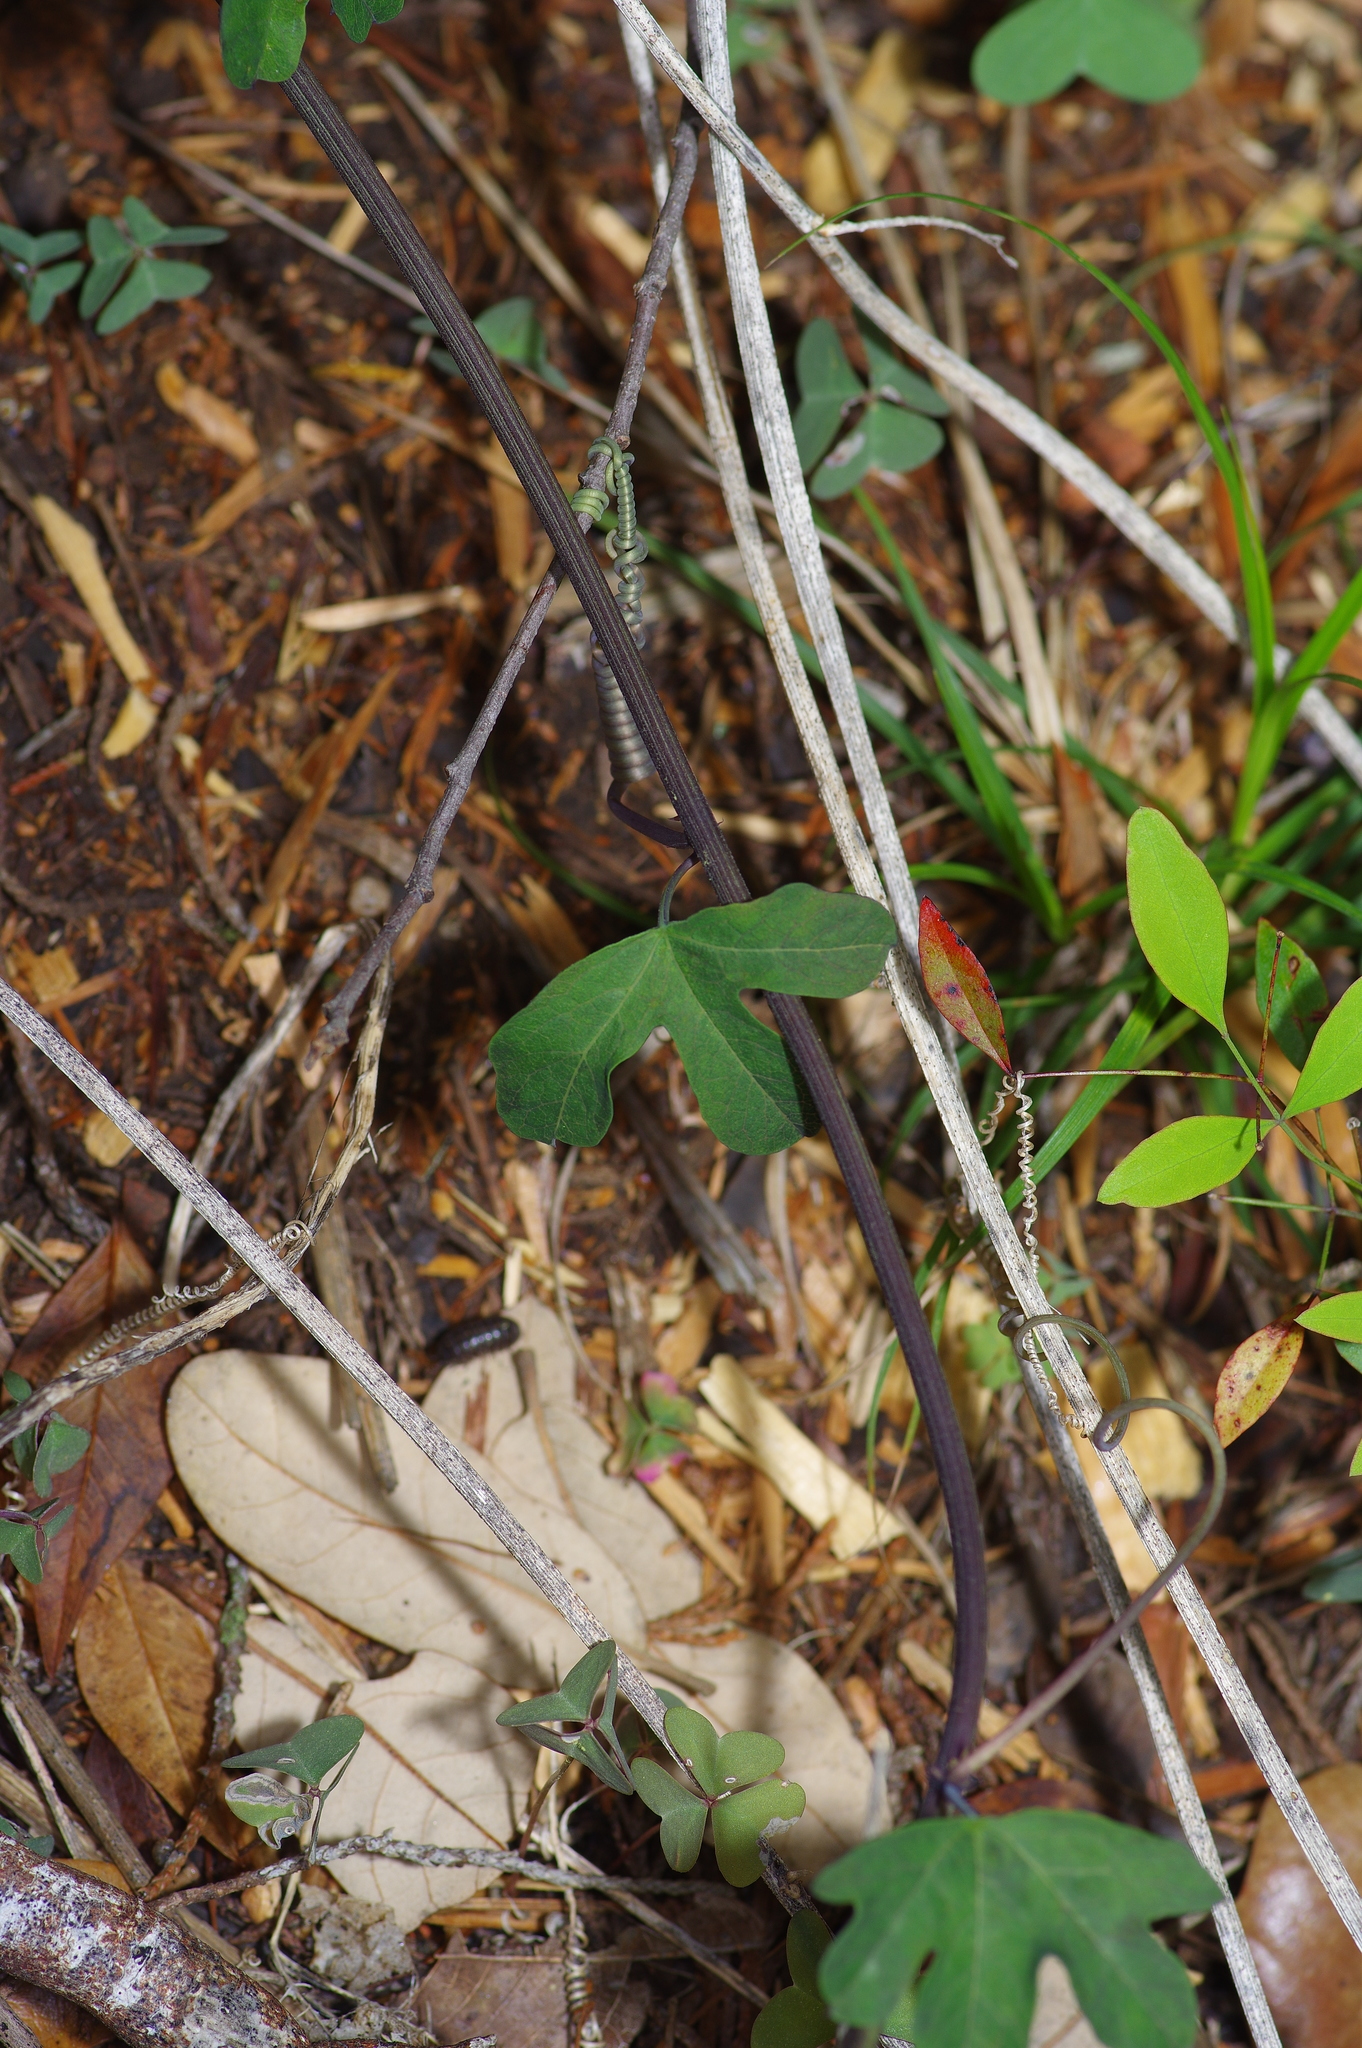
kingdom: Plantae
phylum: Tracheophyta
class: Magnoliopsida
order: Malpighiales
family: Passifloraceae
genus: Passiflora
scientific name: Passiflora affinis
